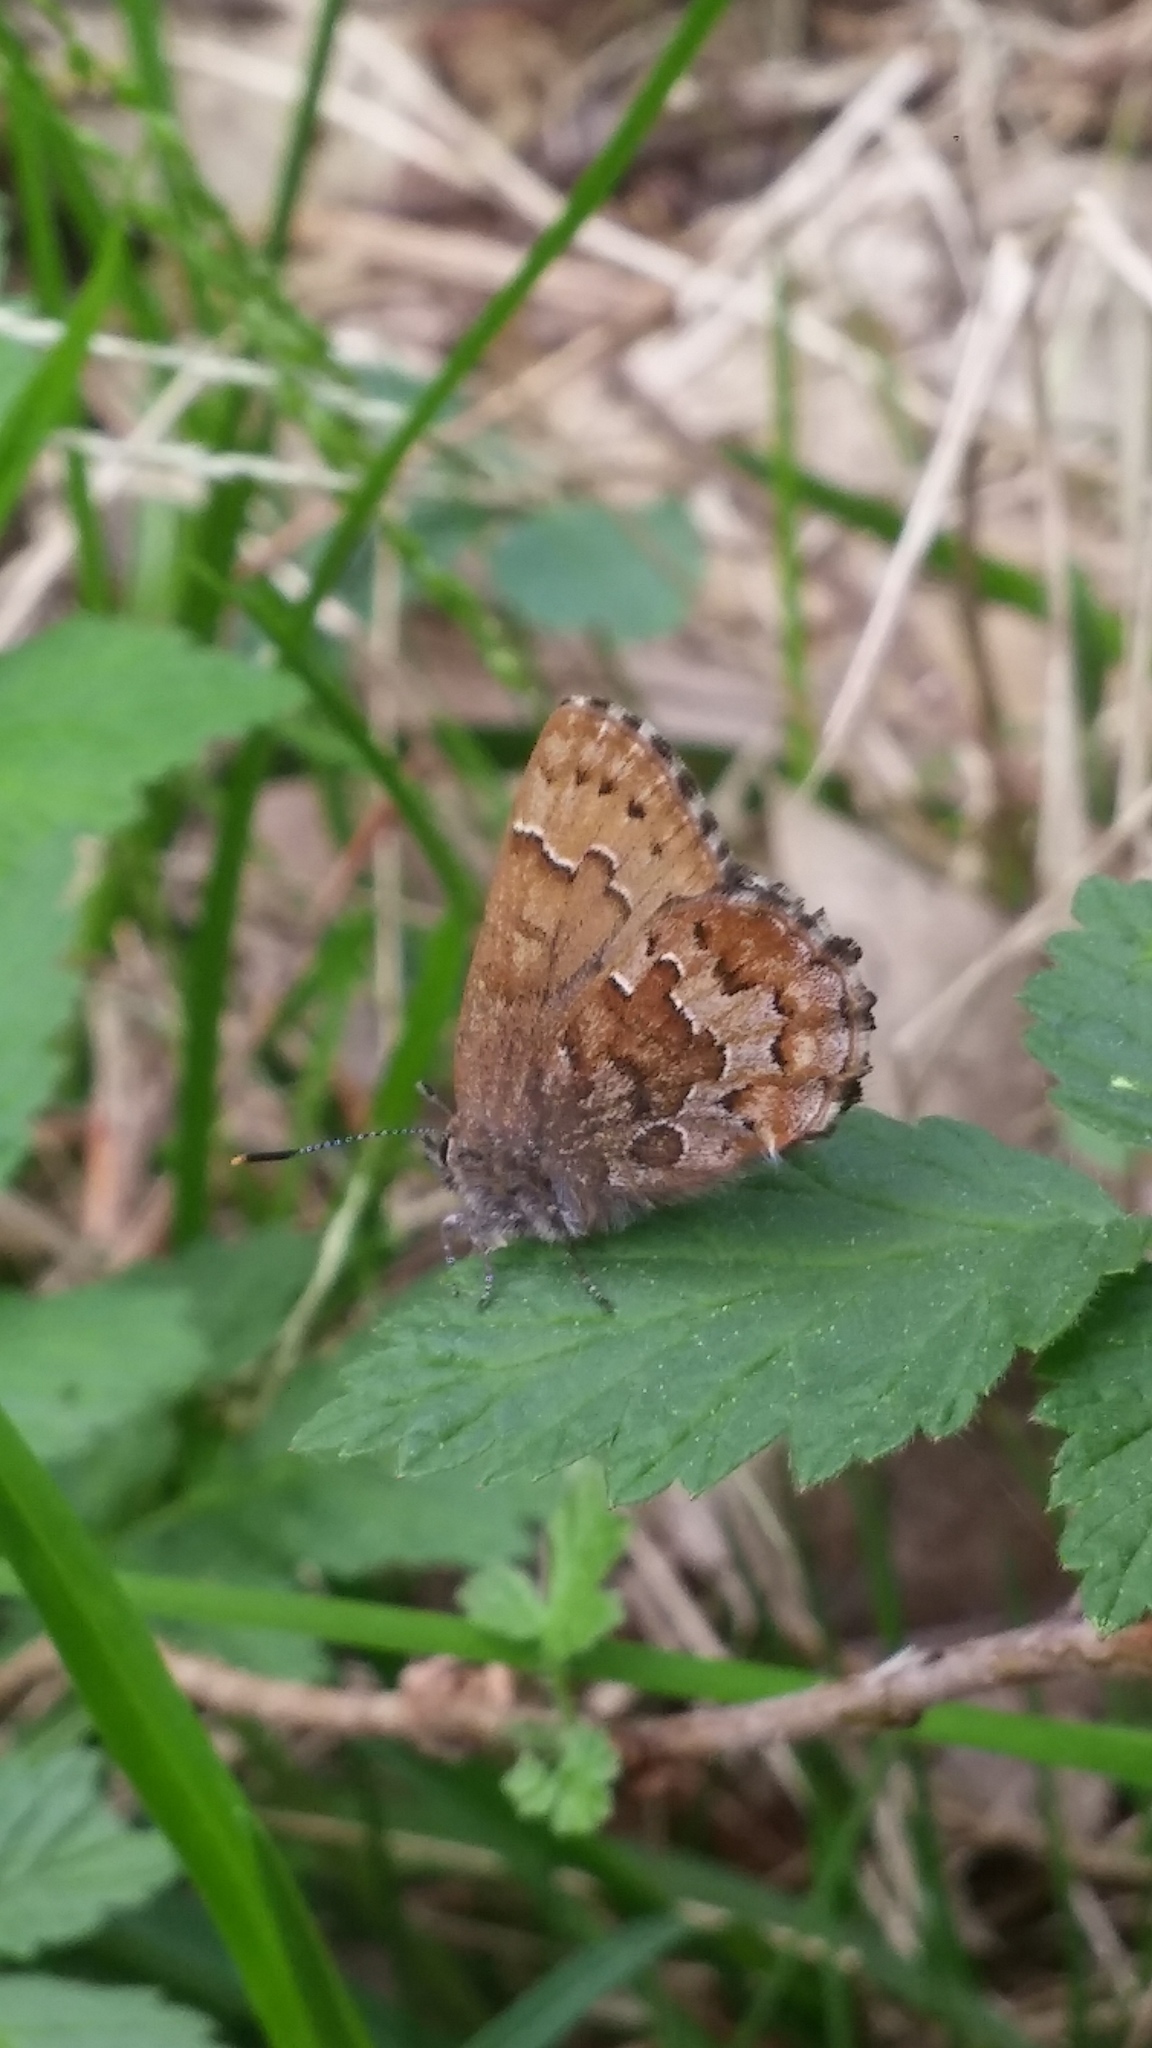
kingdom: Animalia
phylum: Arthropoda
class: Insecta
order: Lepidoptera
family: Lycaenidae
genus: Incisalia
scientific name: Incisalia niphon
